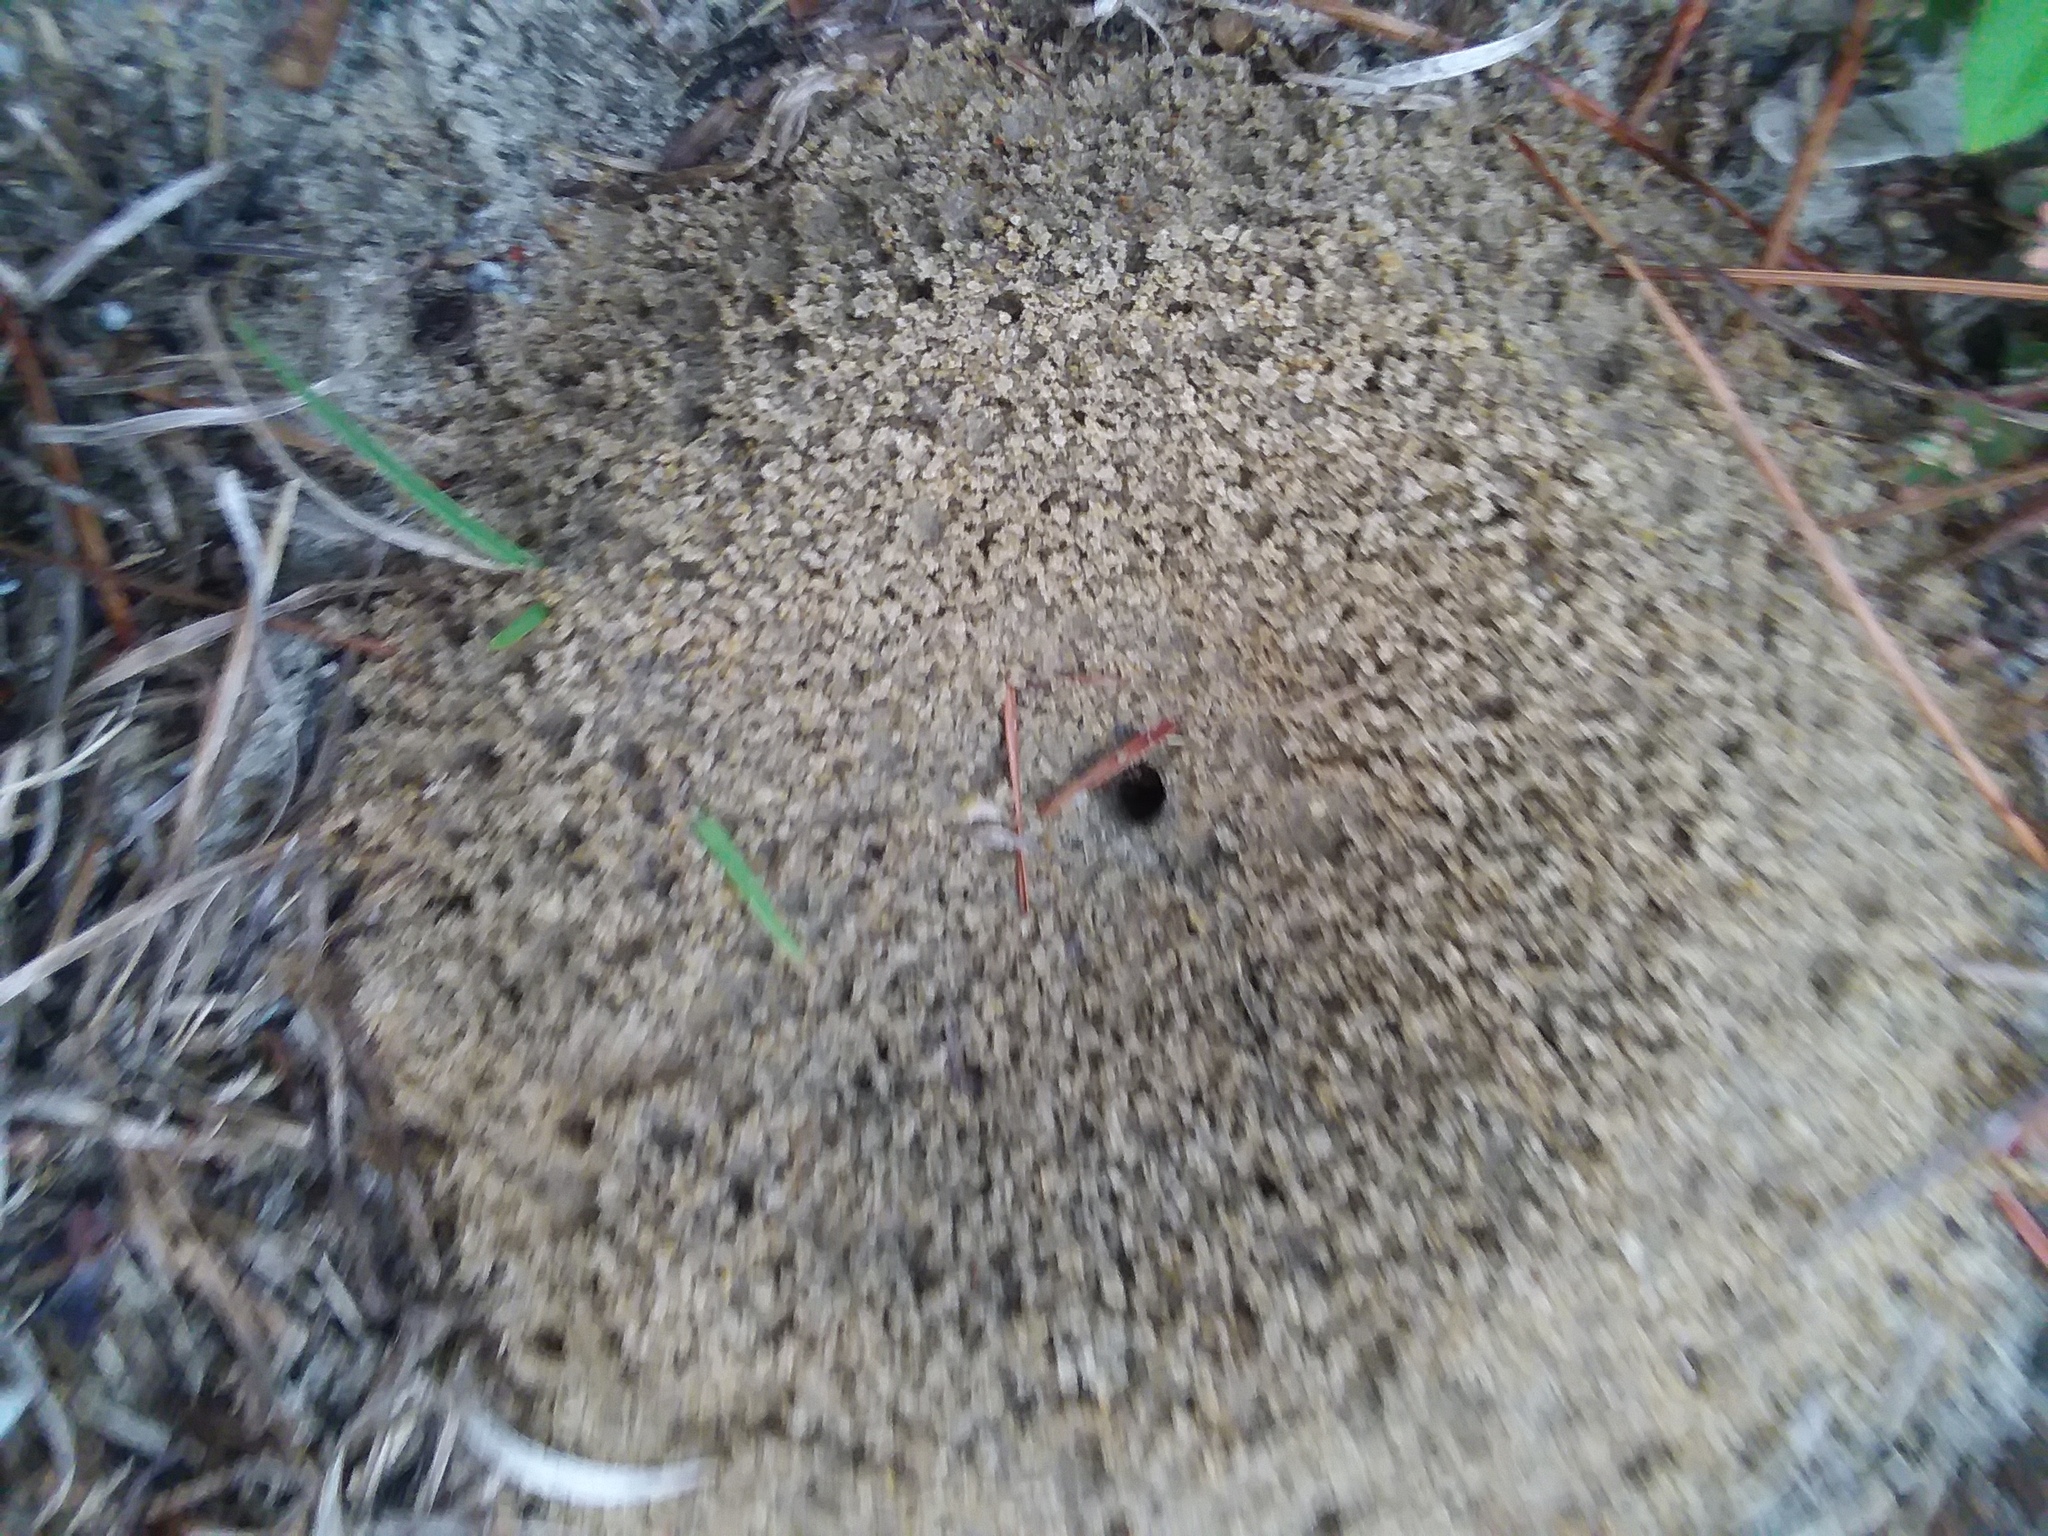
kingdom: Animalia
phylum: Arthropoda
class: Insecta
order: Hymenoptera
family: Formicidae
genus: Dorymyrmex
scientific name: Dorymyrmex bureni
